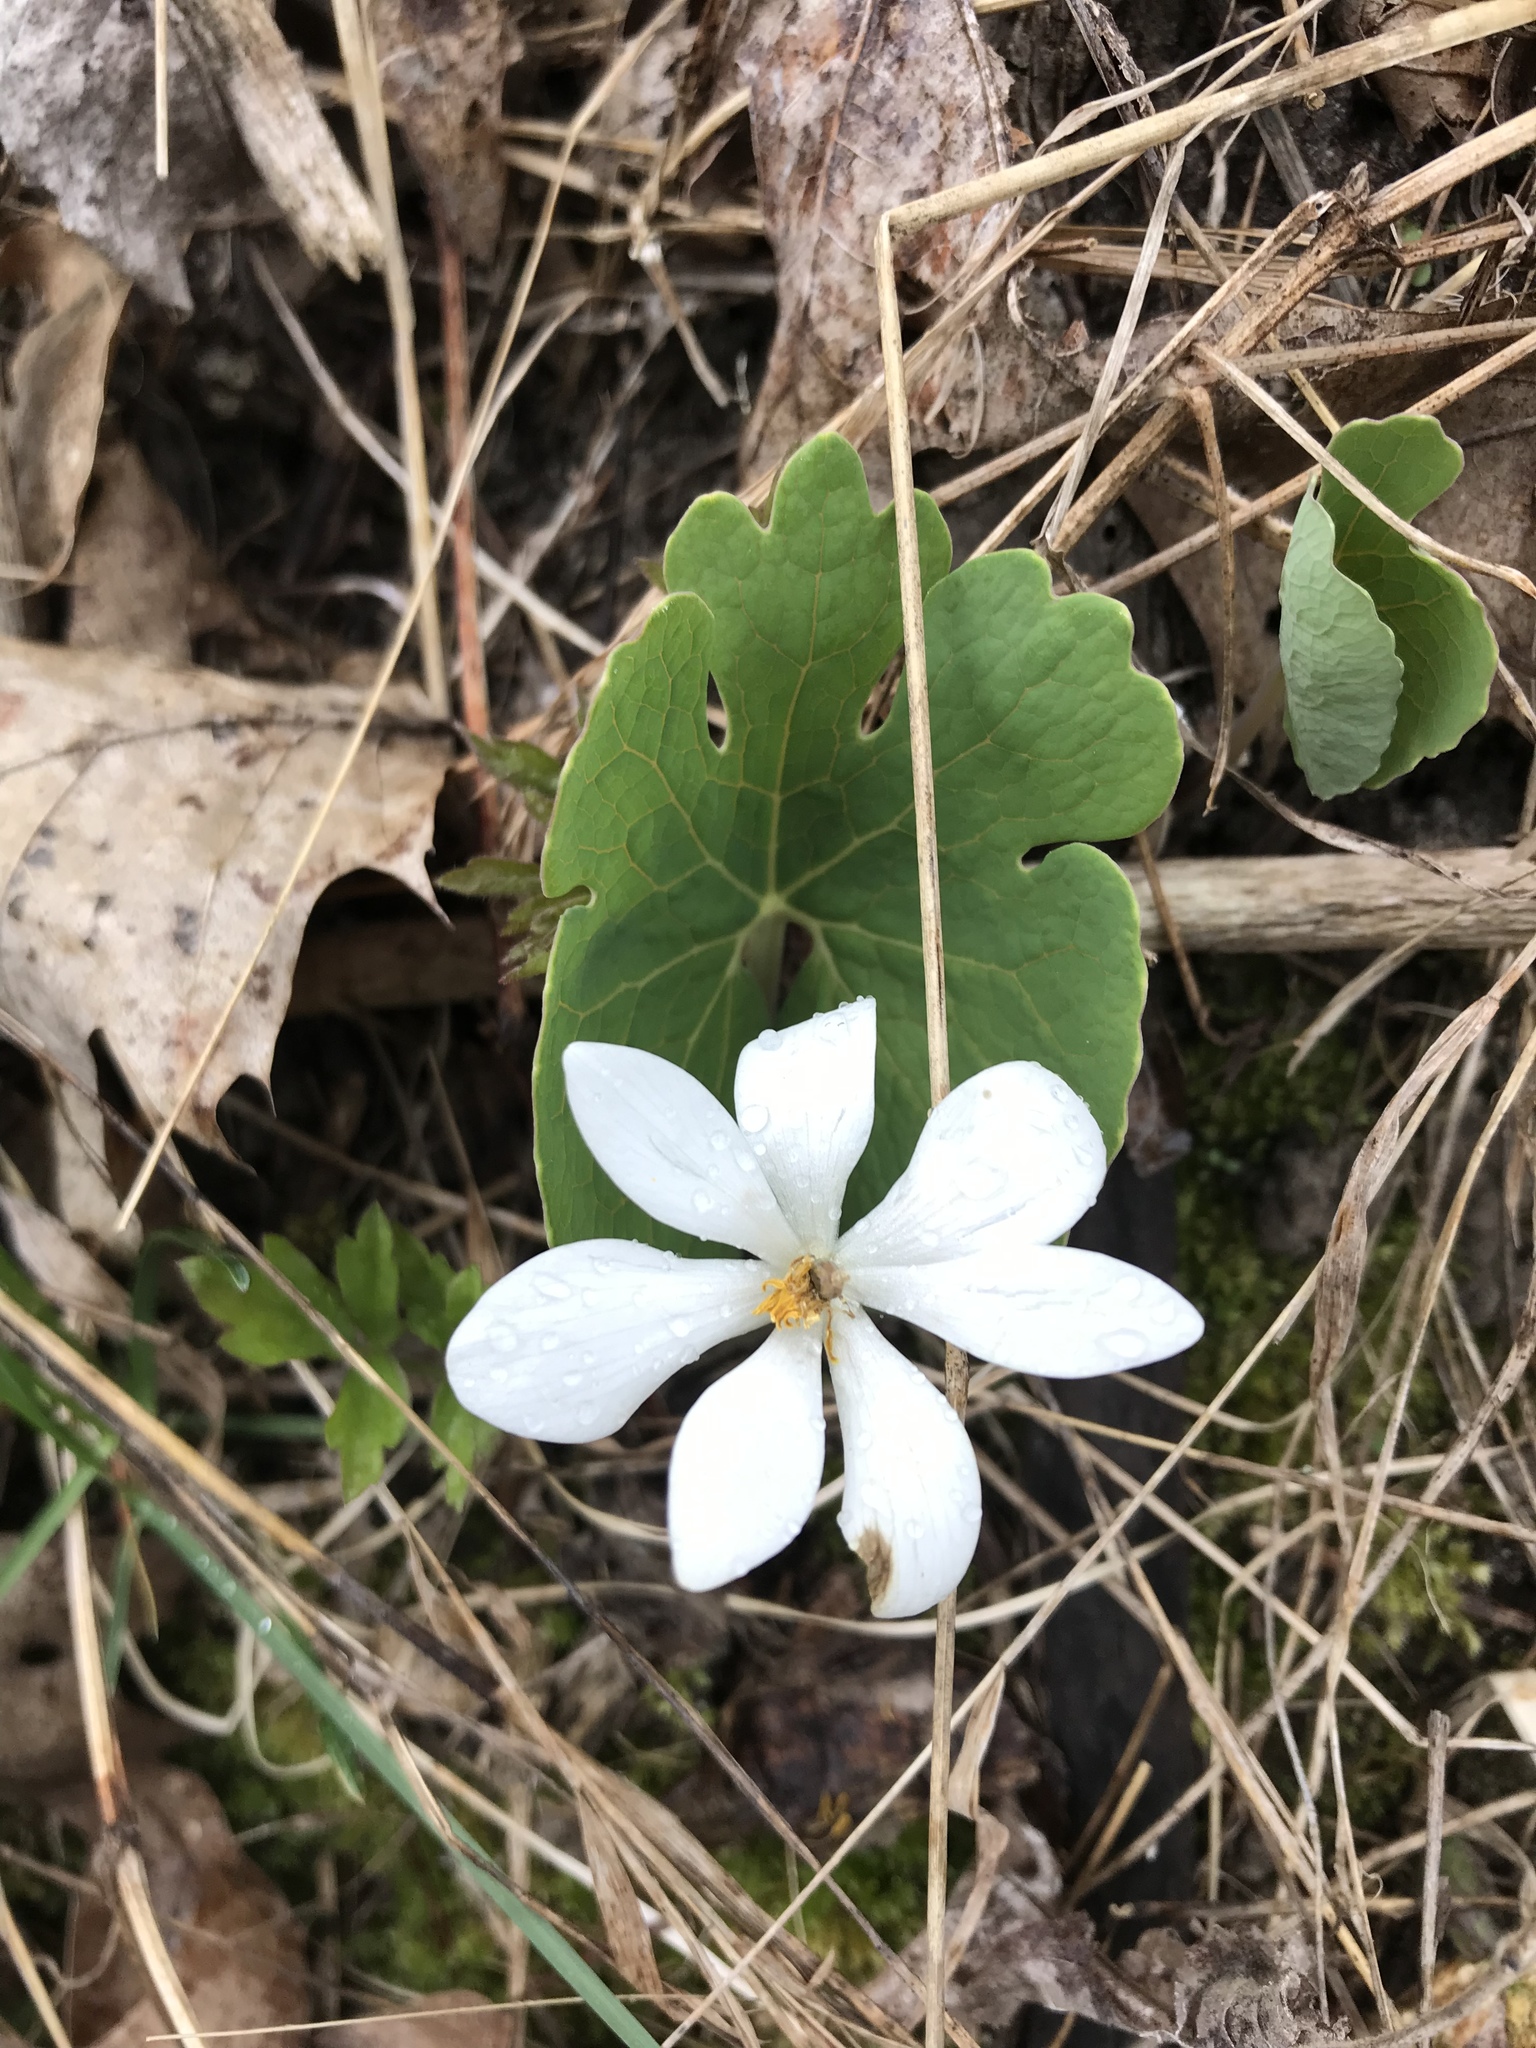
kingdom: Plantae
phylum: Tracheophyta
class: Magnoliopsida
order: Ranunculales
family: Papaveraceae
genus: Sanguinaria
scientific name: Sanguinaria canadensis
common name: Bloodroot
